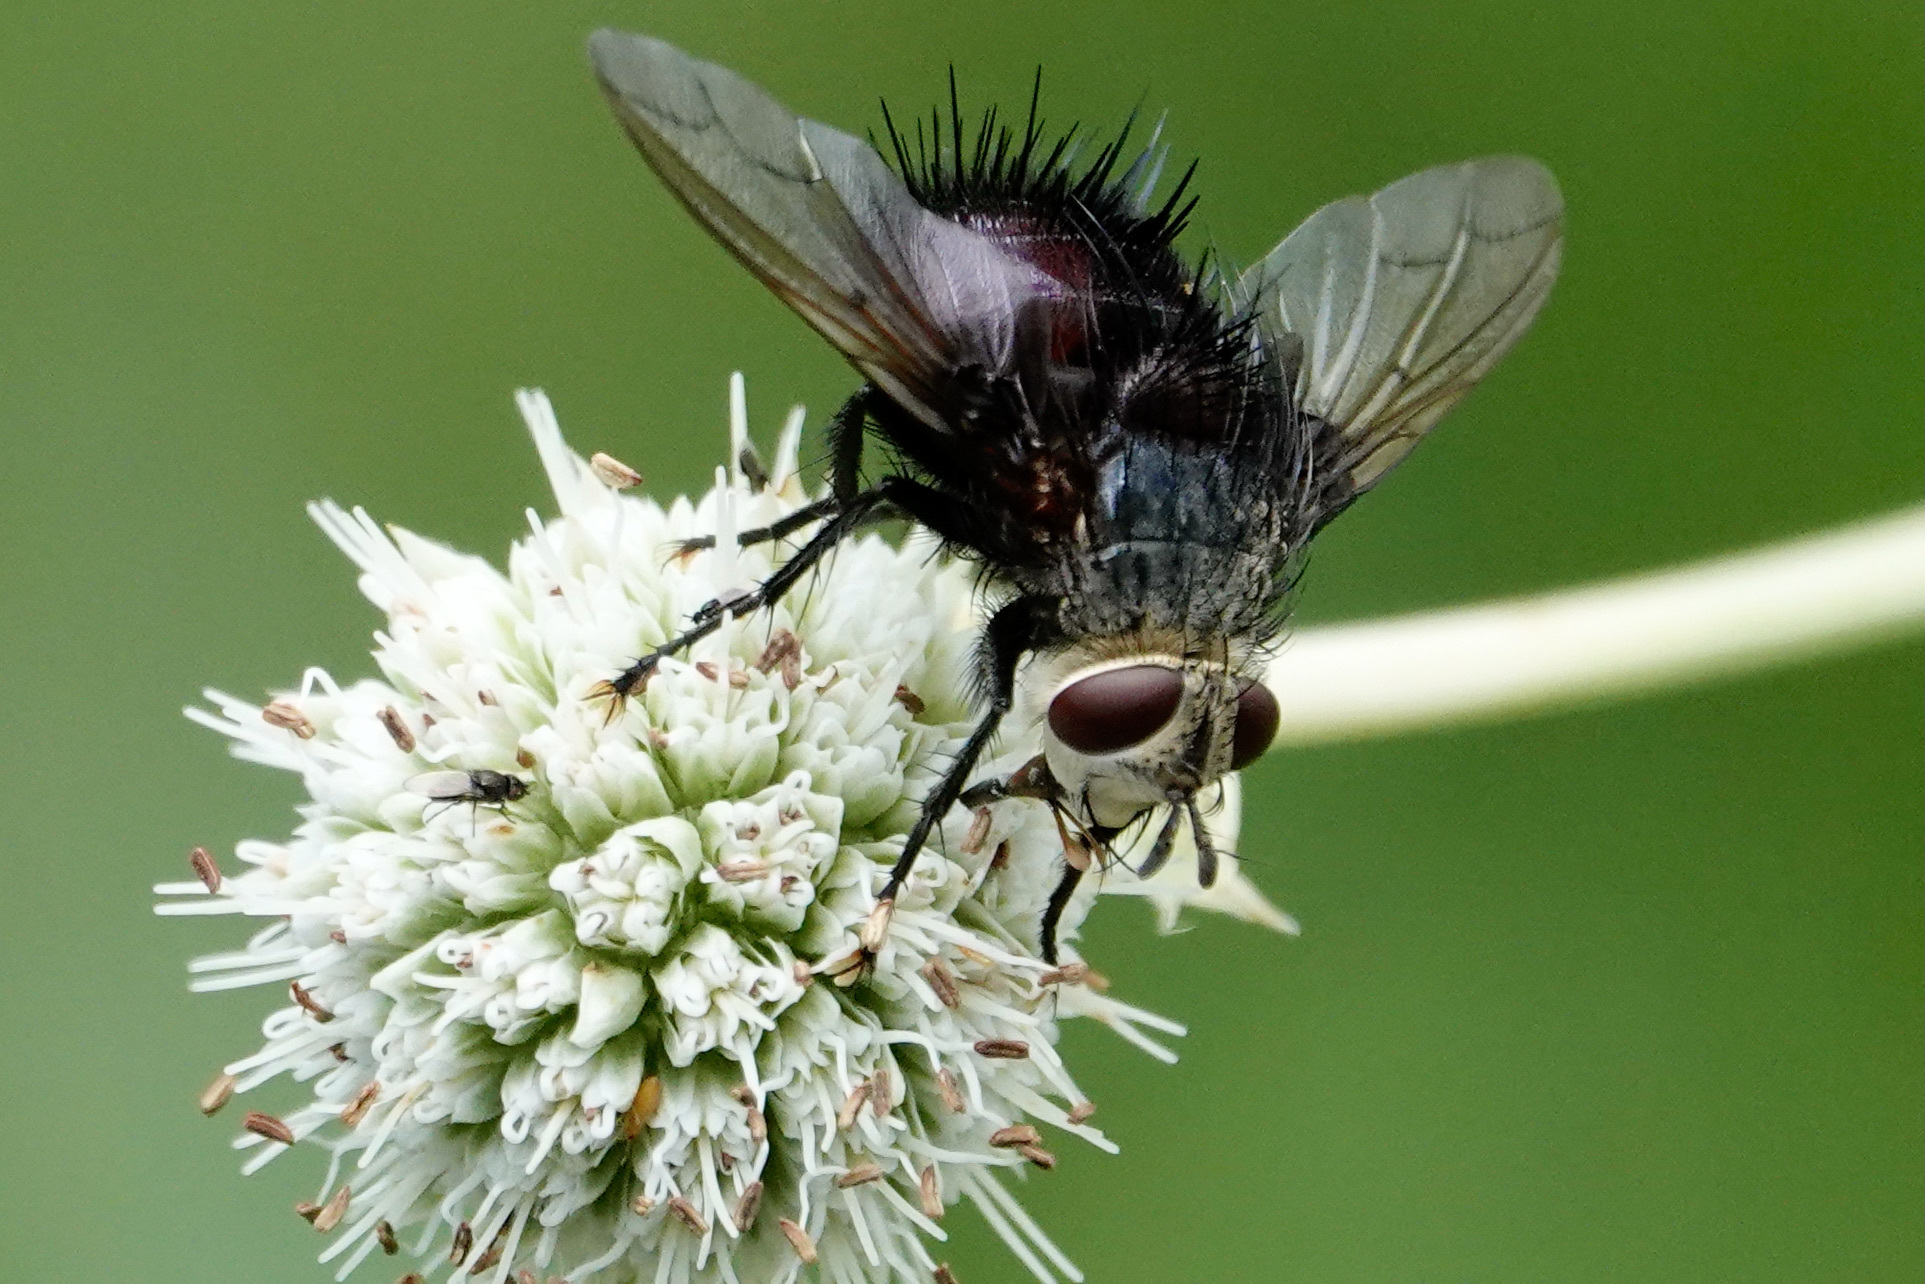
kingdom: Animalia
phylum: Arthropoda
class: Insecta
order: Diptera
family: Tachinidae
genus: Juriniopsis
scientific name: Juriniopsis adusta
